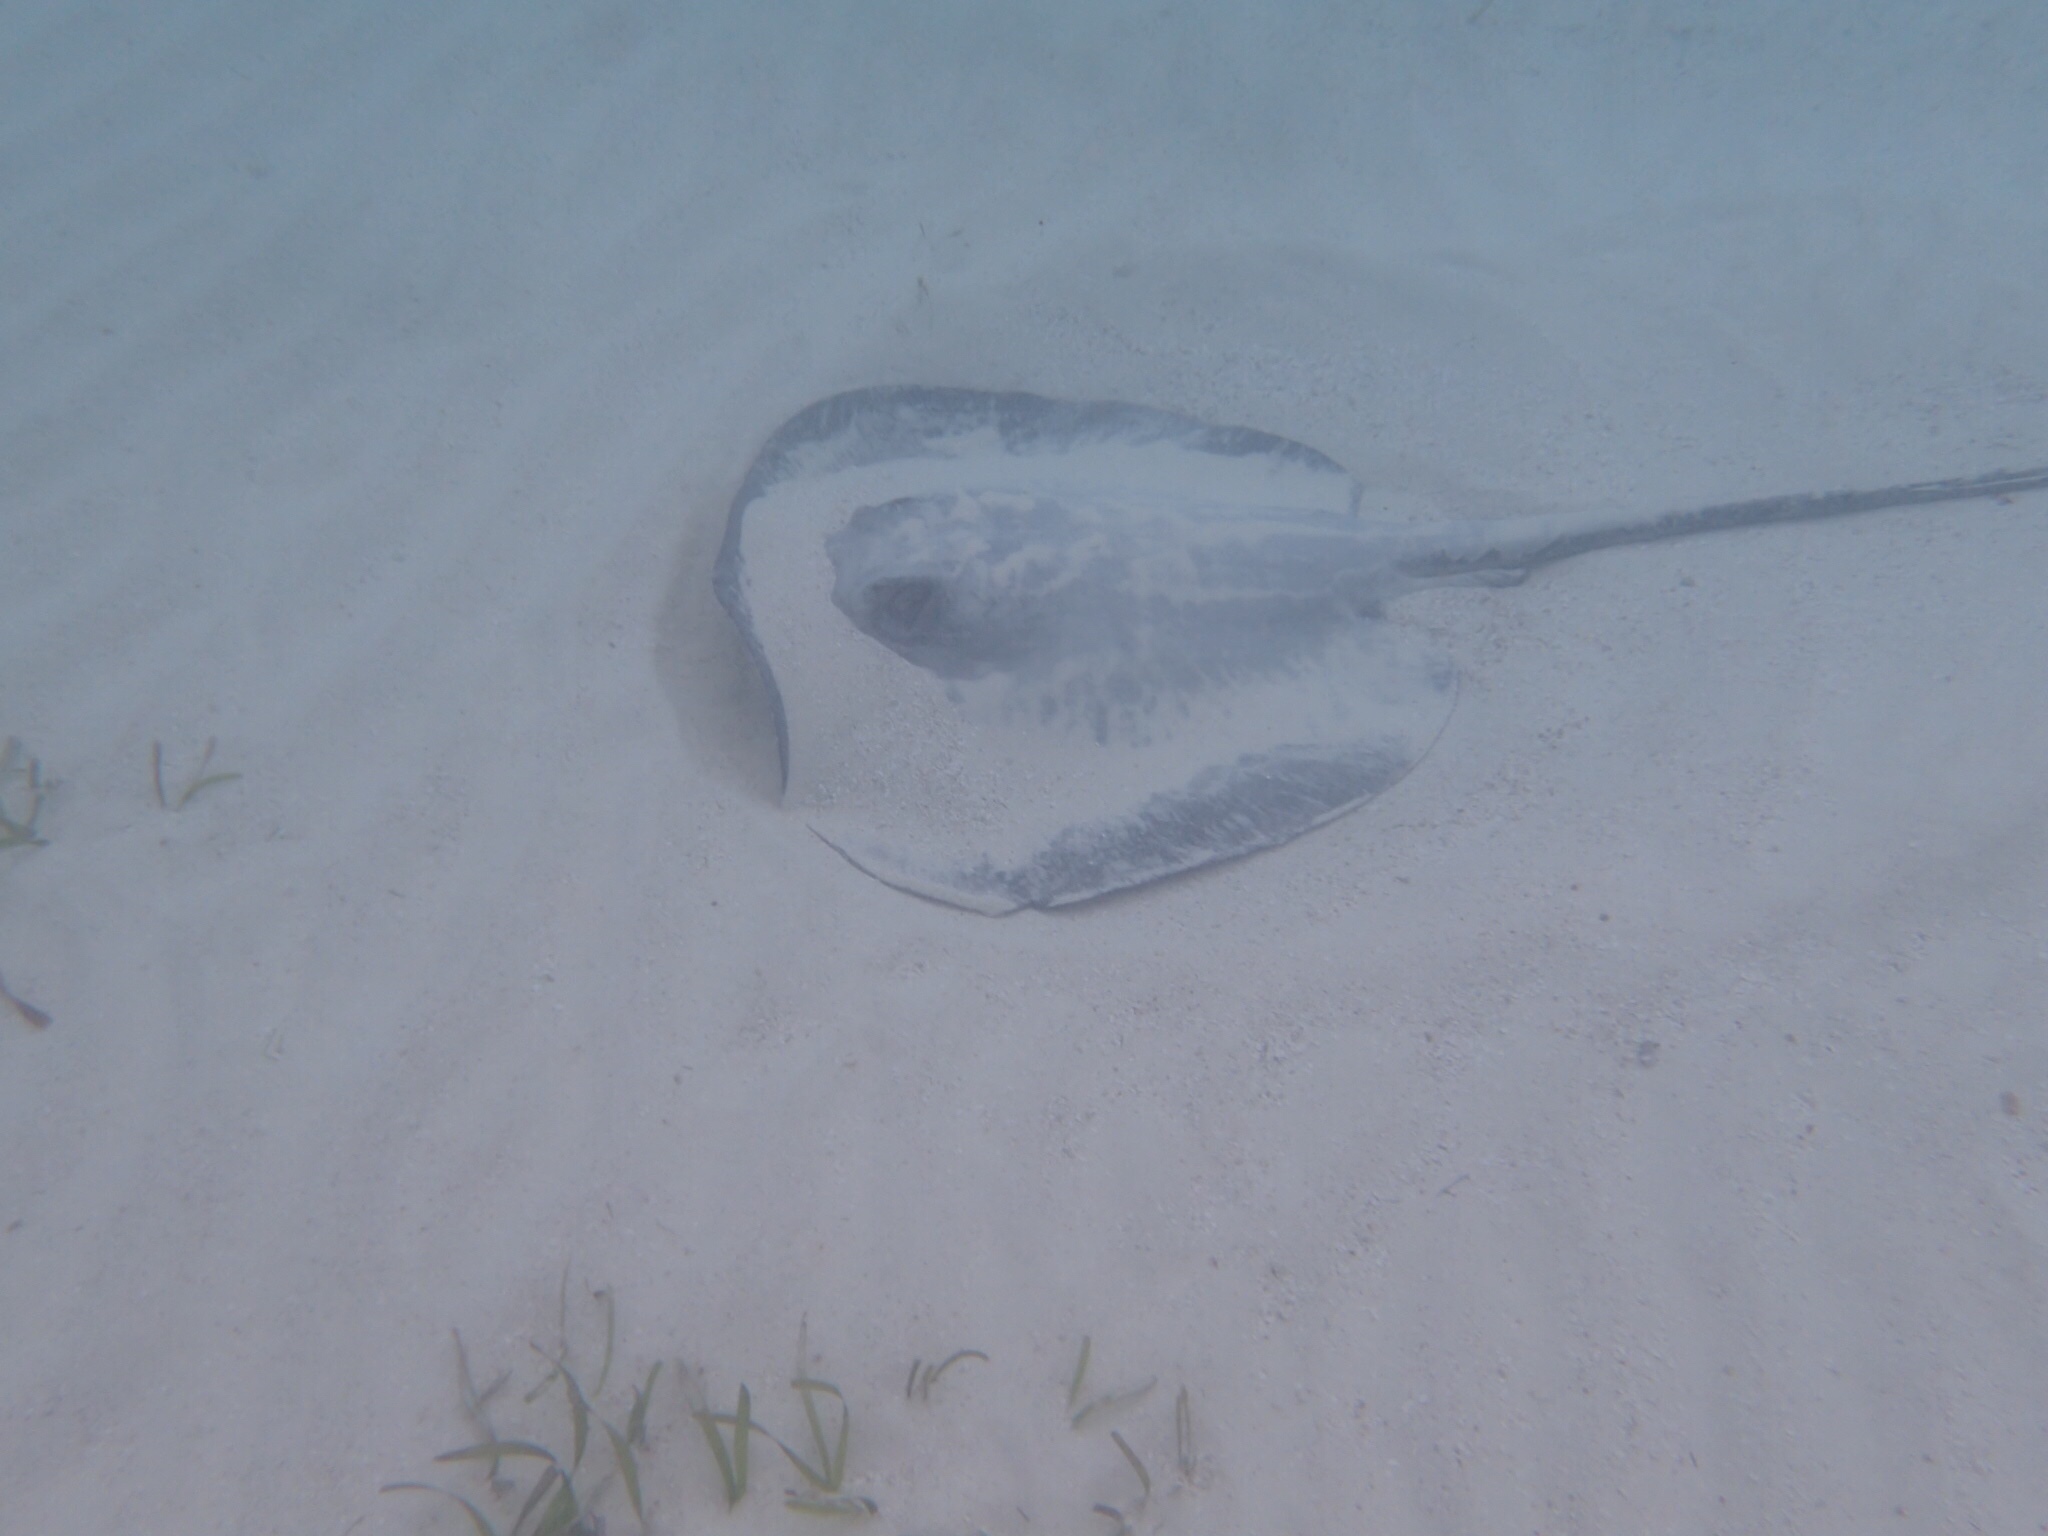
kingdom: Animalia
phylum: Chordata
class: Elasmobranchii
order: Myliobatiformes
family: Potamotrygonidae
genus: Styracura
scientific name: Styracura schmardae
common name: Atlantic chupare
